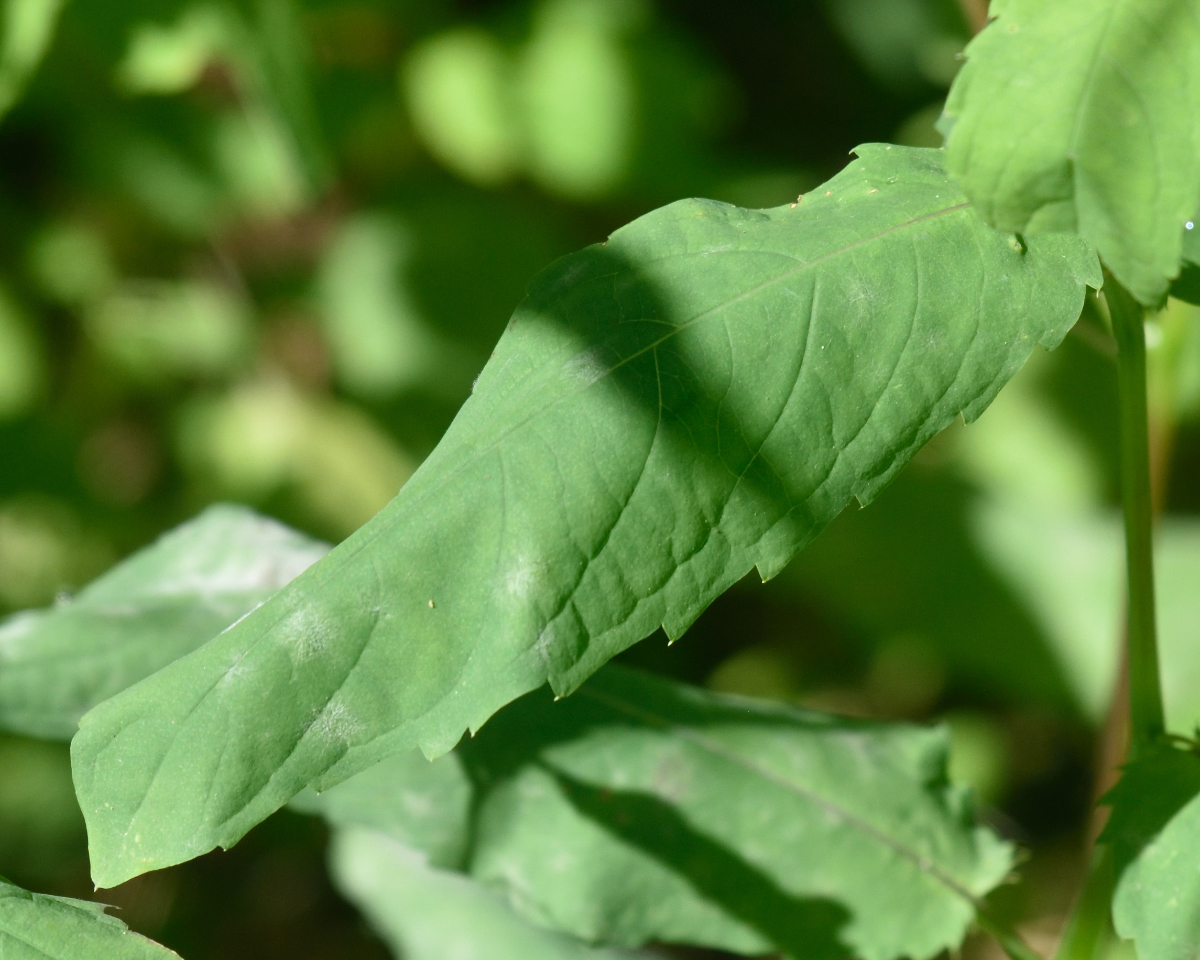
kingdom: Plantae
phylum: Tracheophyta
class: Magnoliopsida
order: Ericales
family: Balsaminaceae
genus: Impatiens
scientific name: Impatiens noli-tangere
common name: Touch-me-not balsam
